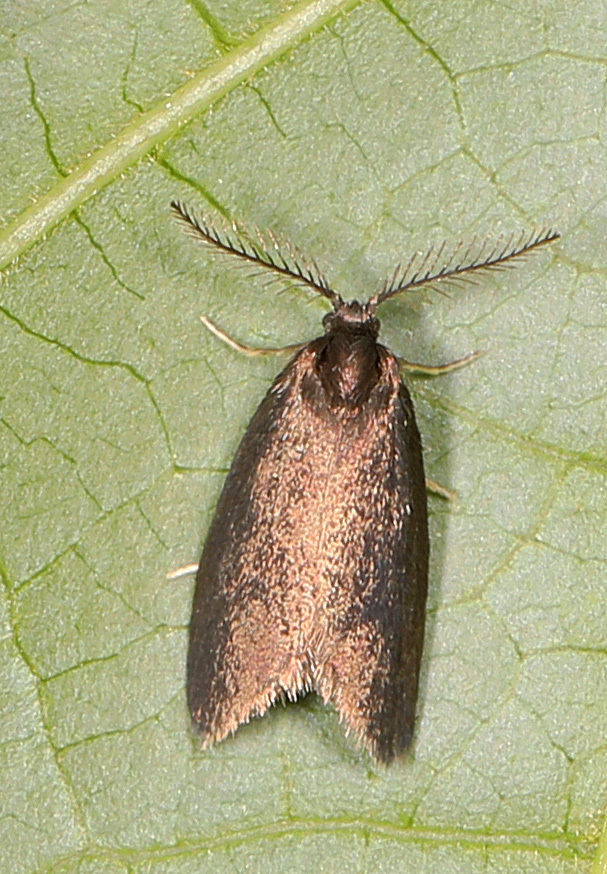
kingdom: Animalia
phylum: Arthropoda
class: Insecta
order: Lepidoptera
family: Psychidae
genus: Psyche
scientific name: Psyche casta
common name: Common sweep
